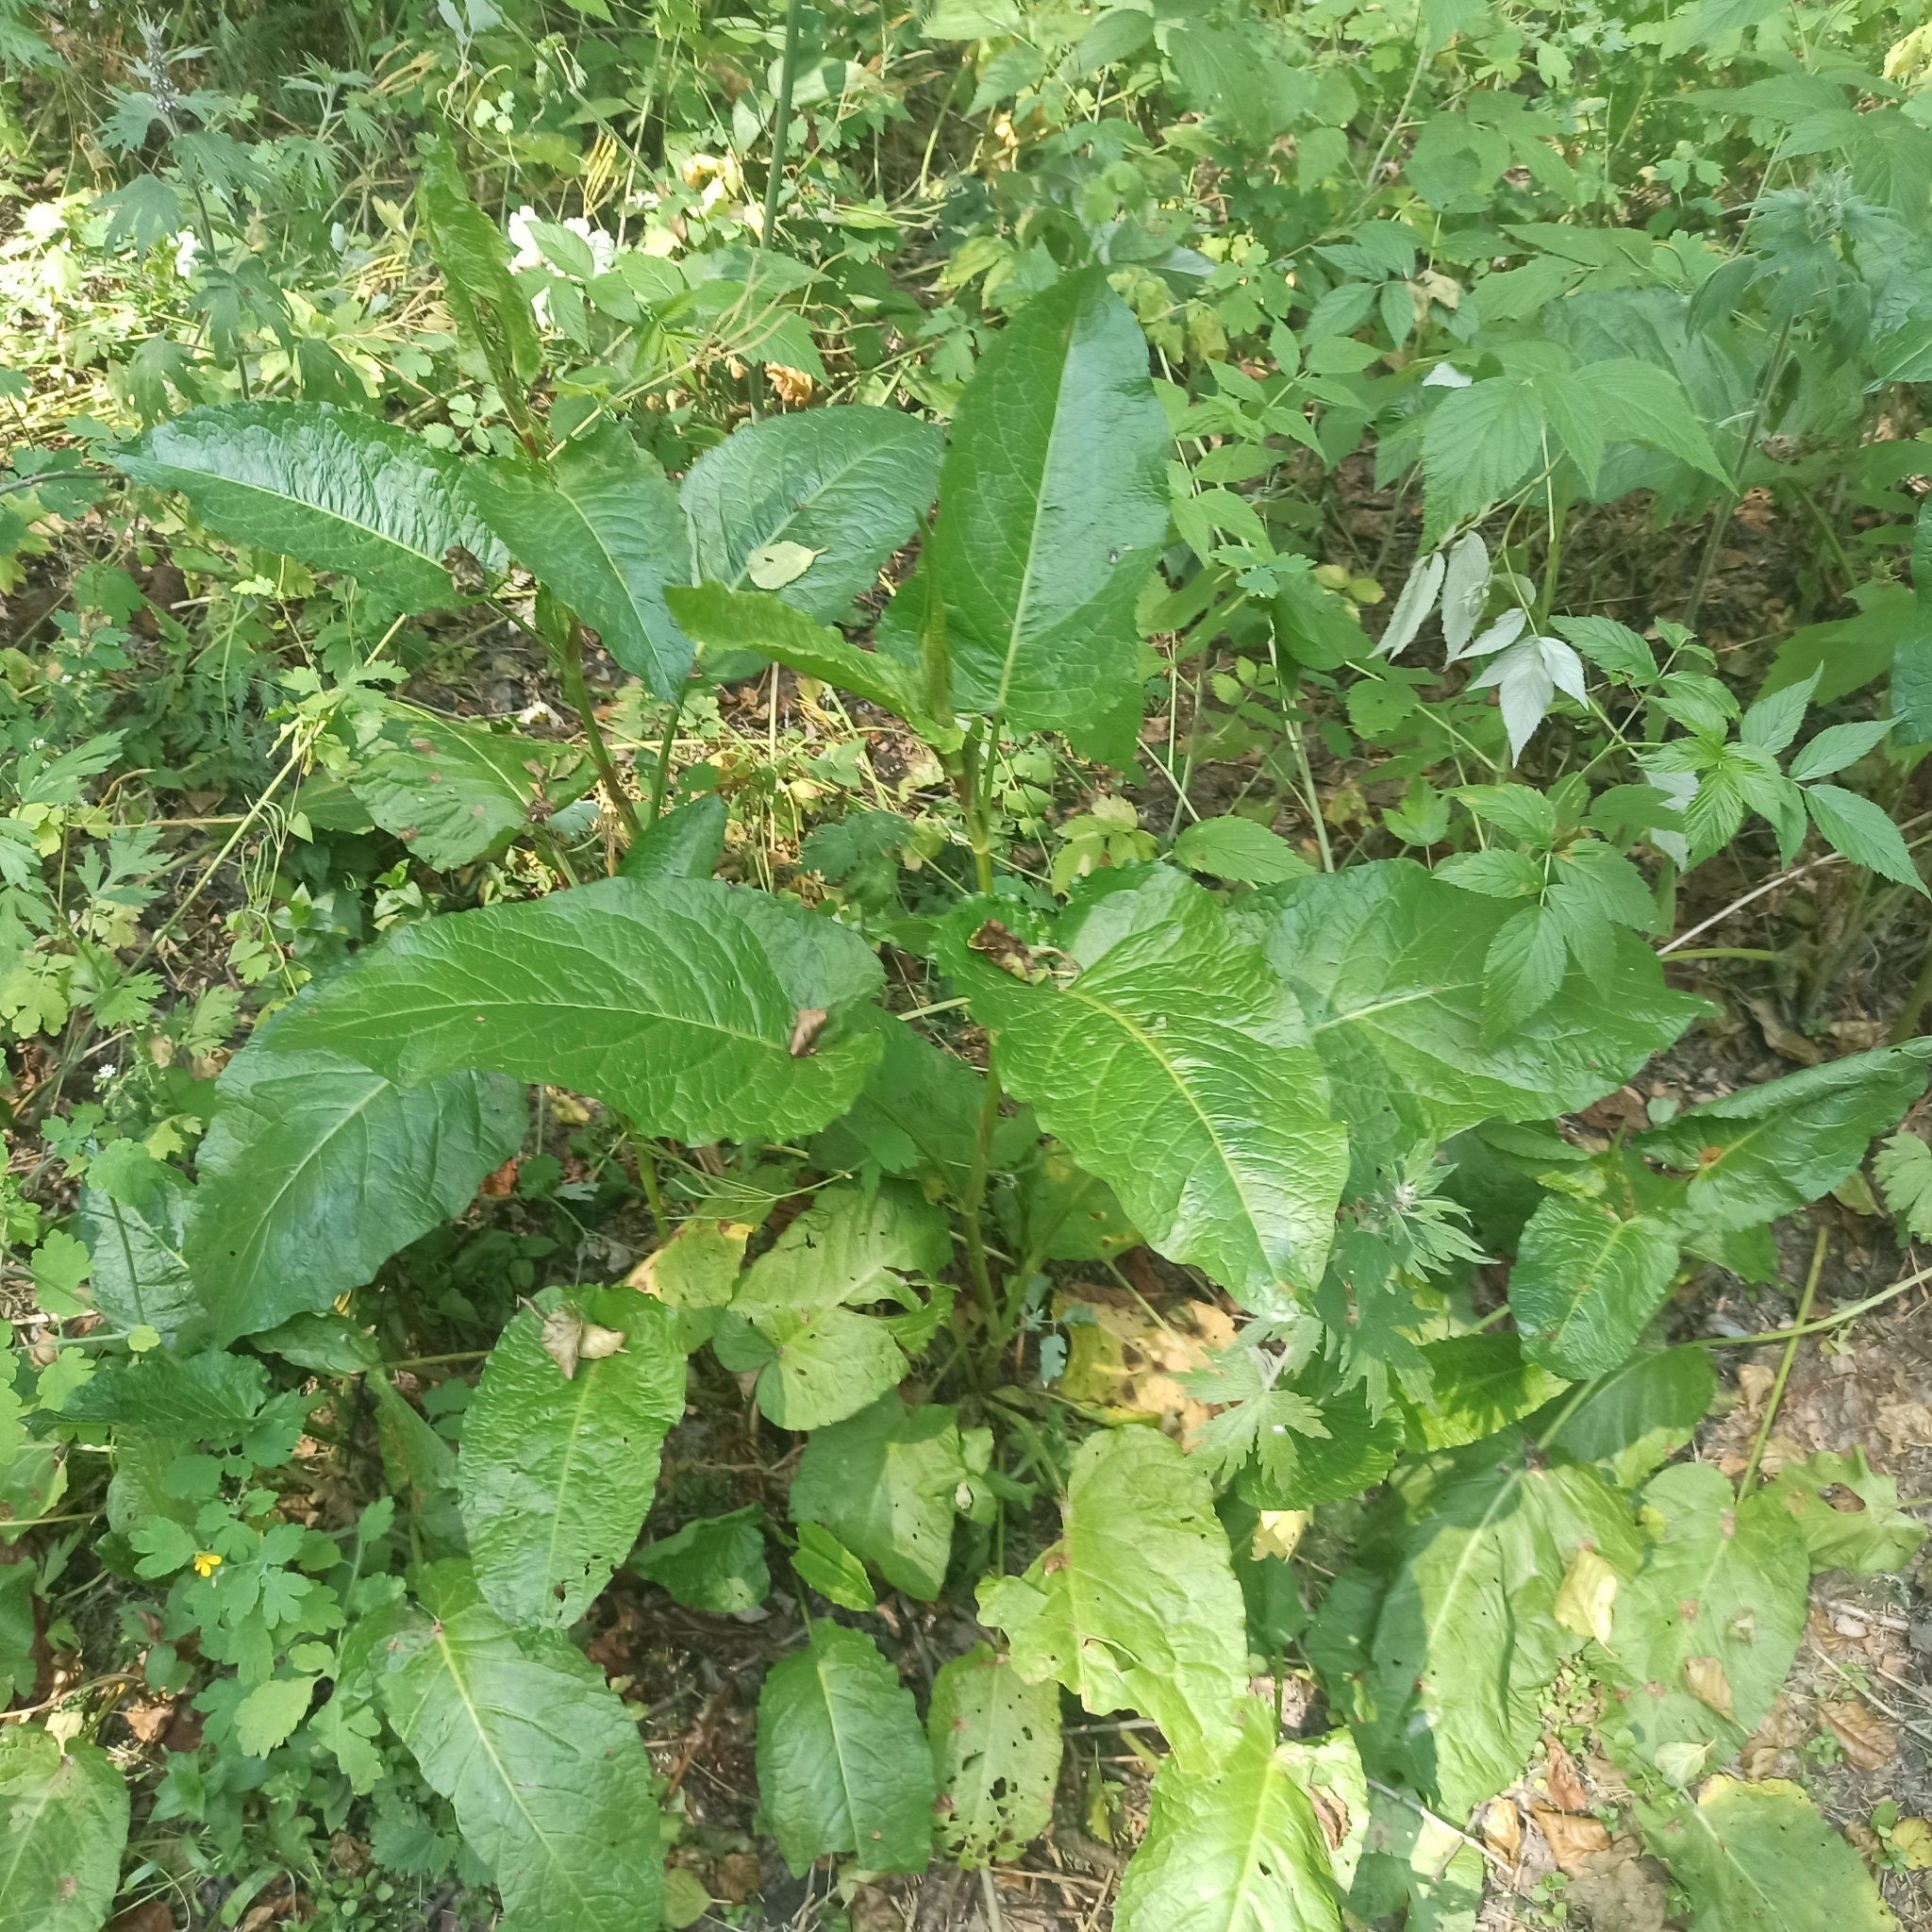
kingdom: Plantae
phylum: Tracheophyta
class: Magnoliopsida
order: Ericales
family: Balsaminaceae
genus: Impatiens
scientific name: Impatiens glandulifera
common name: Himalayan balsam
